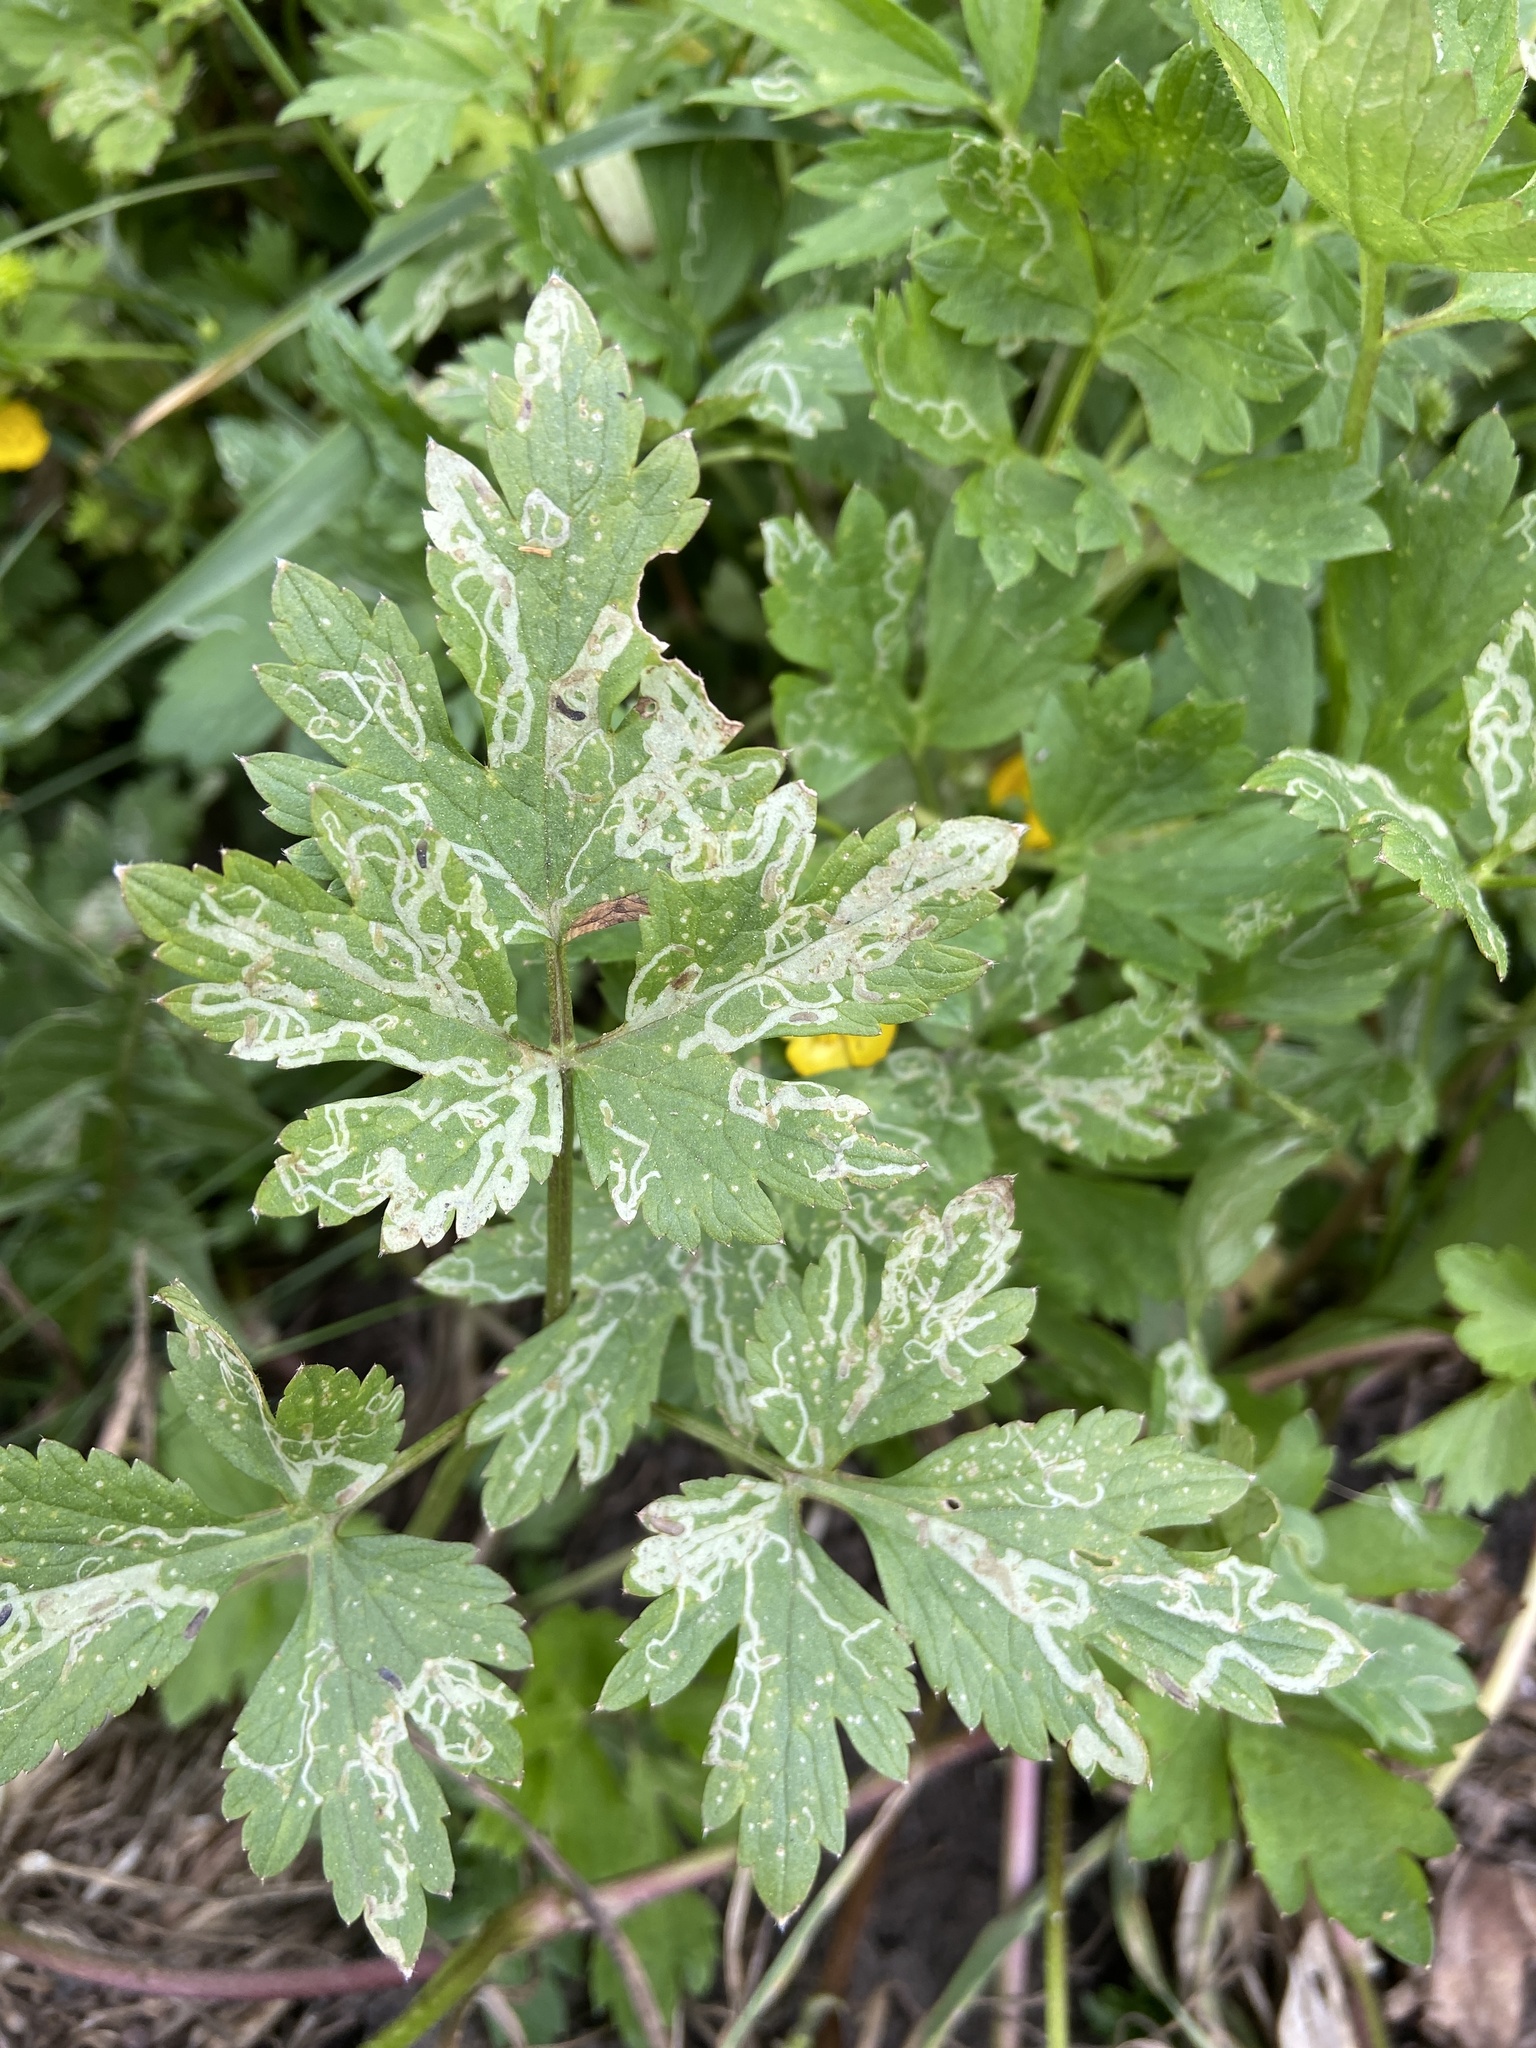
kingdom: Animalia
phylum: Arthropoda
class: Insecta
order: Diptera
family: Agromyzidae
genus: Phytomyza
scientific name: Phytomyza ranunculi
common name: Leaf-miner fly
